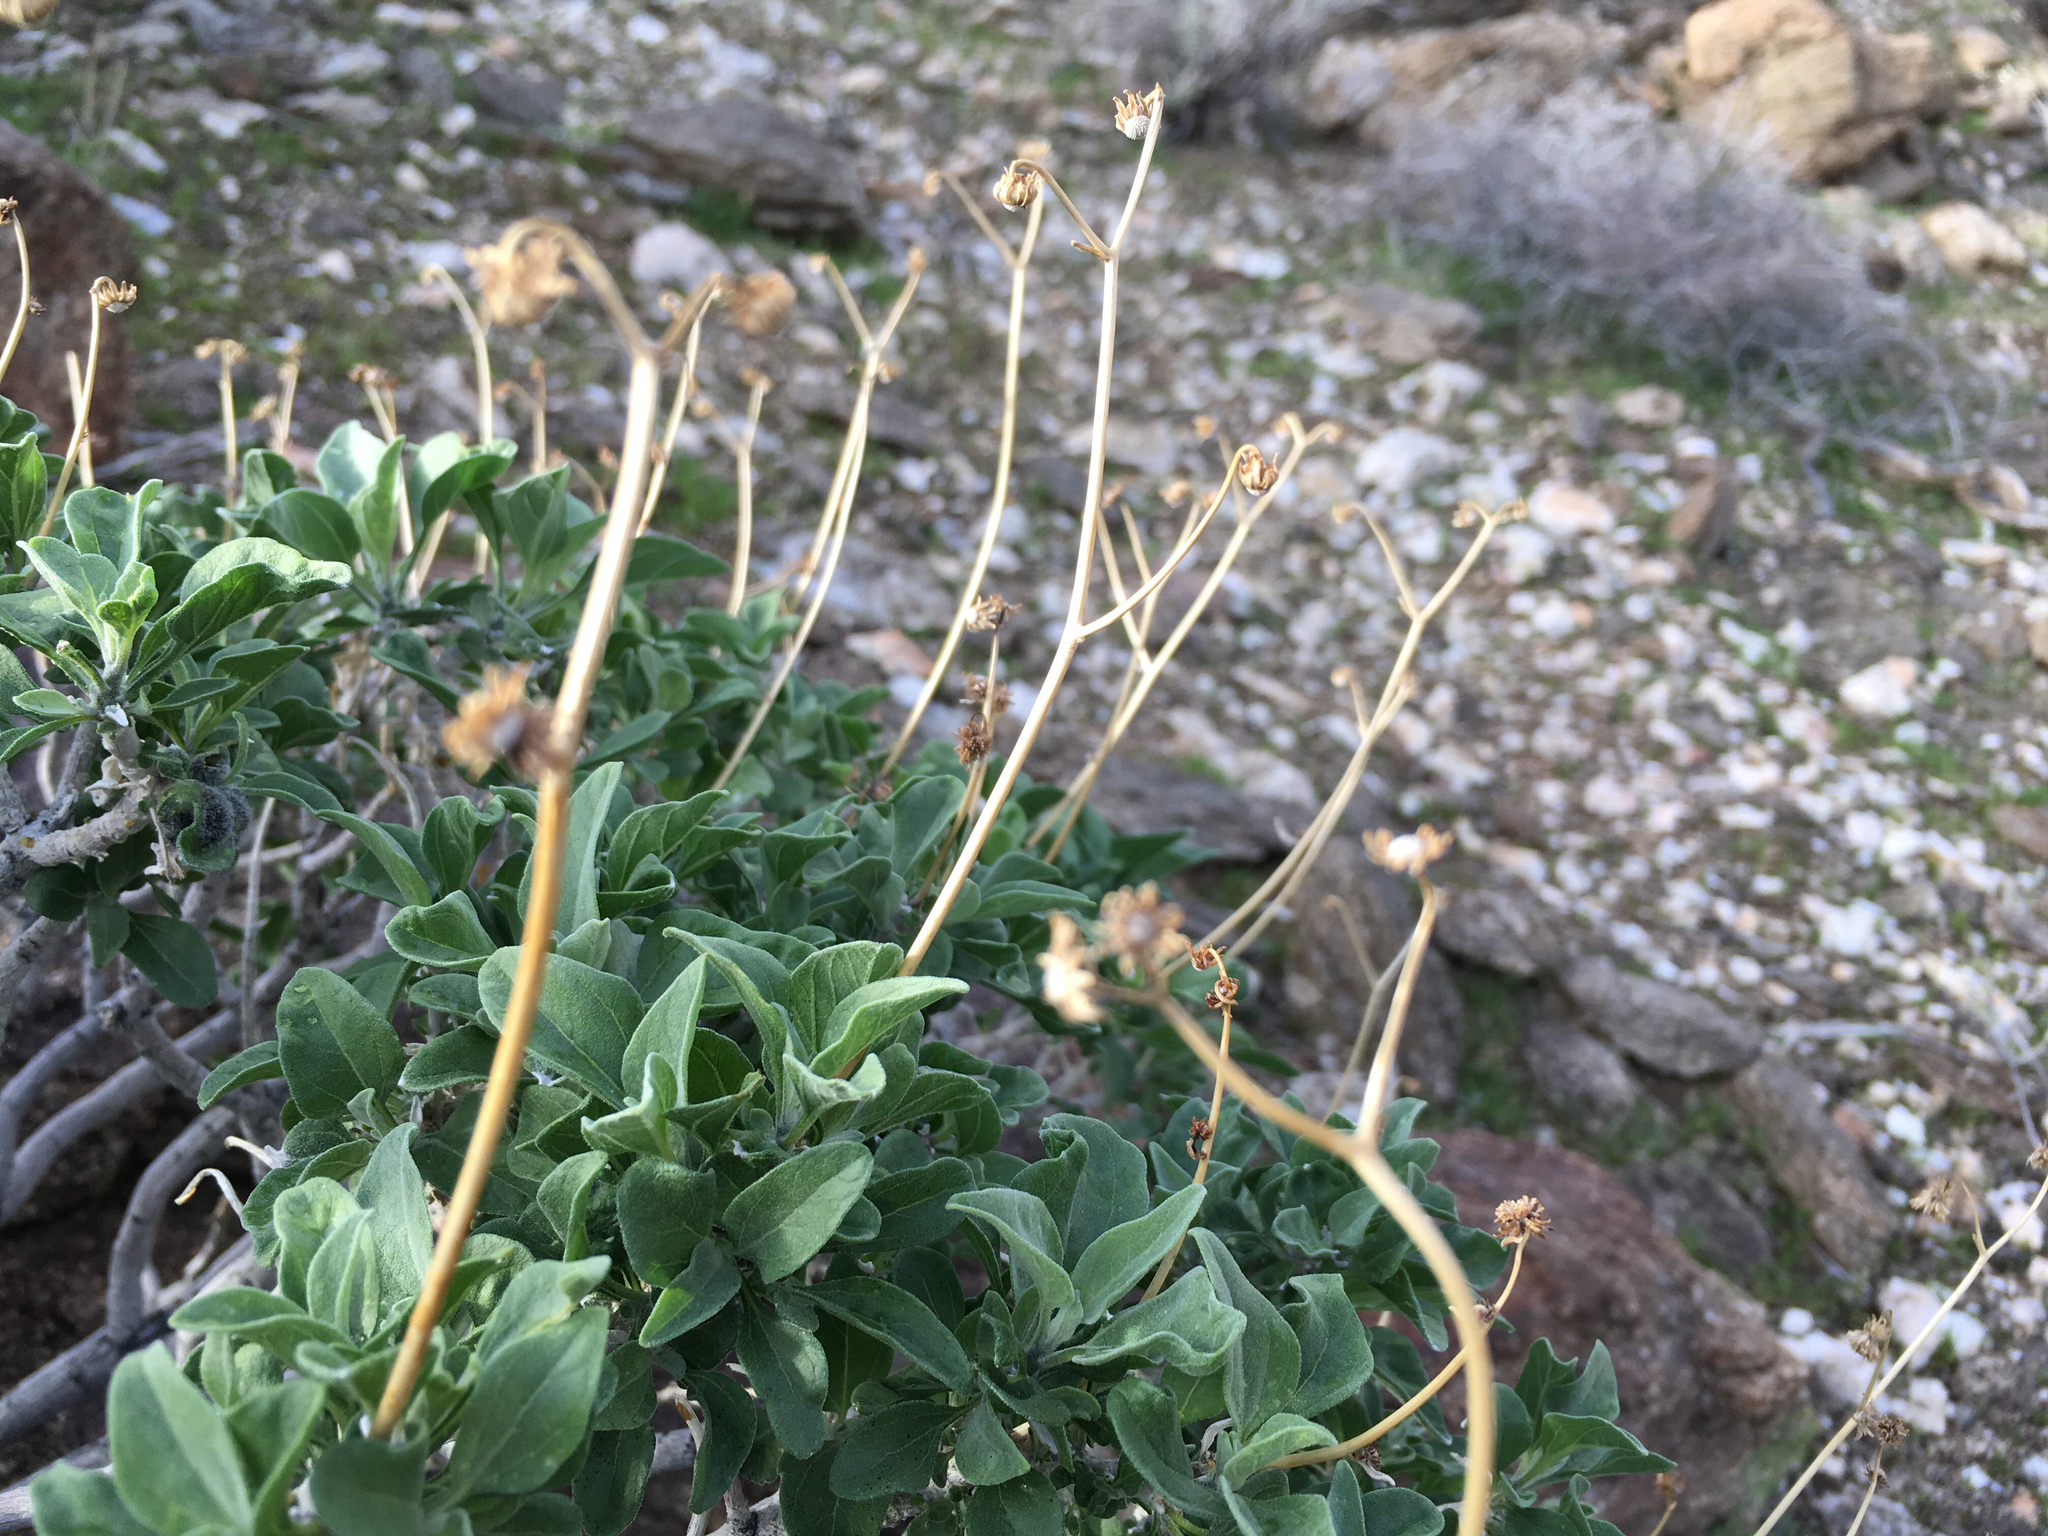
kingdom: Plantae
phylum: Tracheophyta
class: Magnoliopsida
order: Asterales
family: Asteraceae
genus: Encelia
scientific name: Encelia farinosa
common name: Brittlebush
